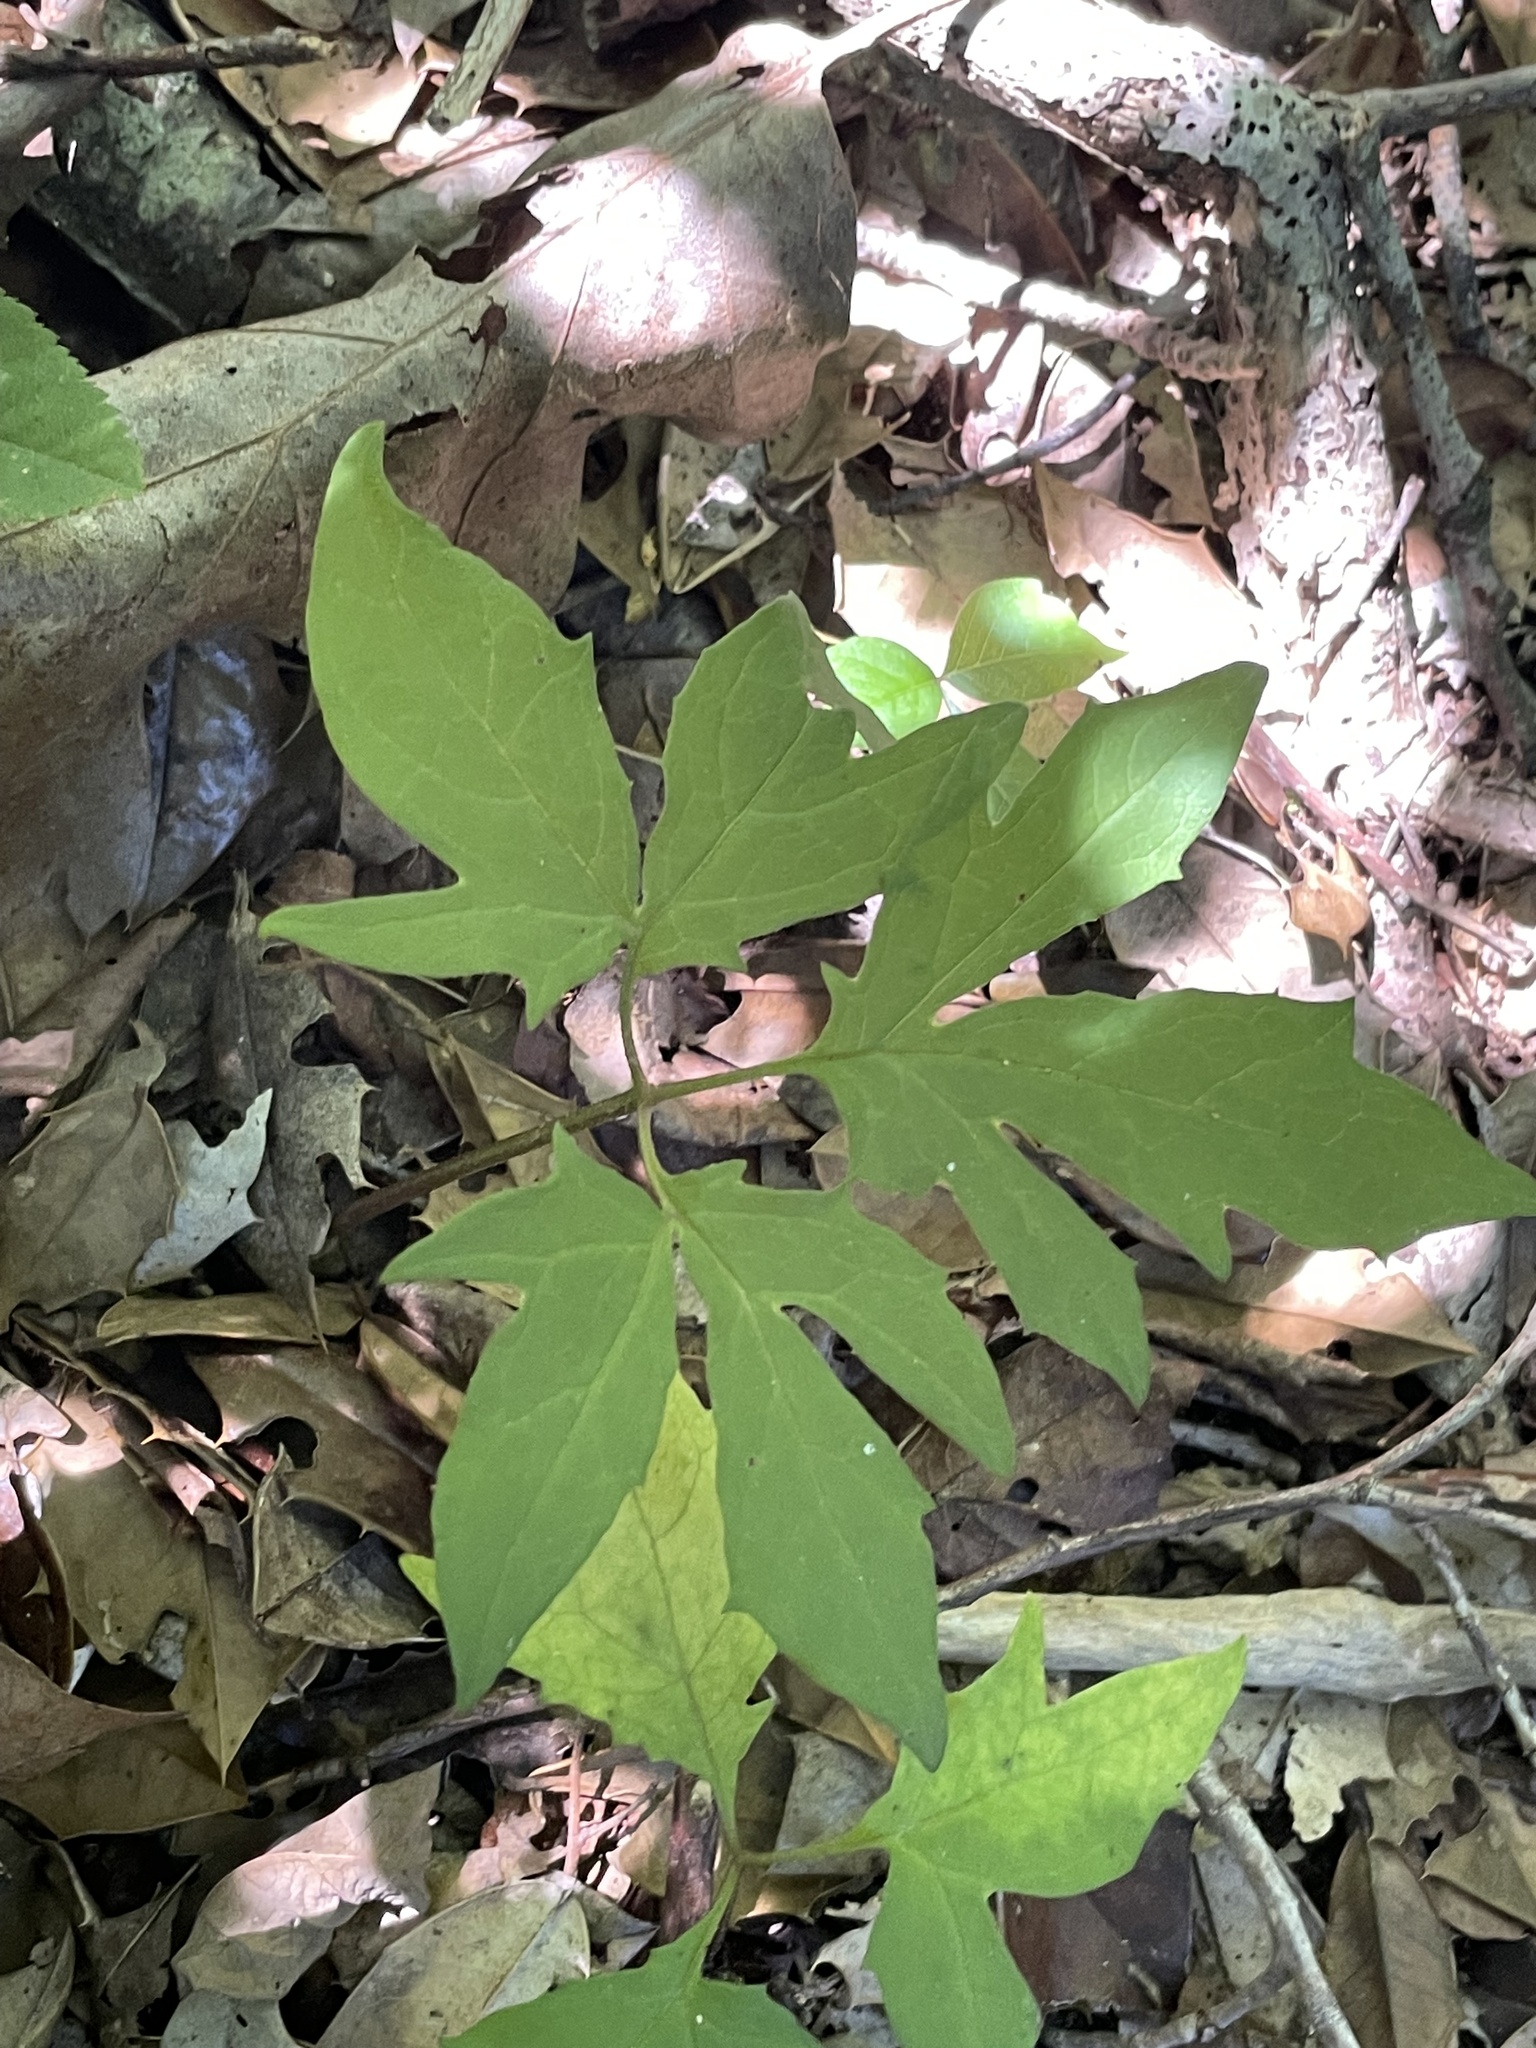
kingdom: Plantae
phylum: Tracheophyta
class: Magnoliopsida
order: Asterales
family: Asteraceae
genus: Nabalus
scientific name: Nabalus trifoliolatus
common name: Gall-of-the-earth
